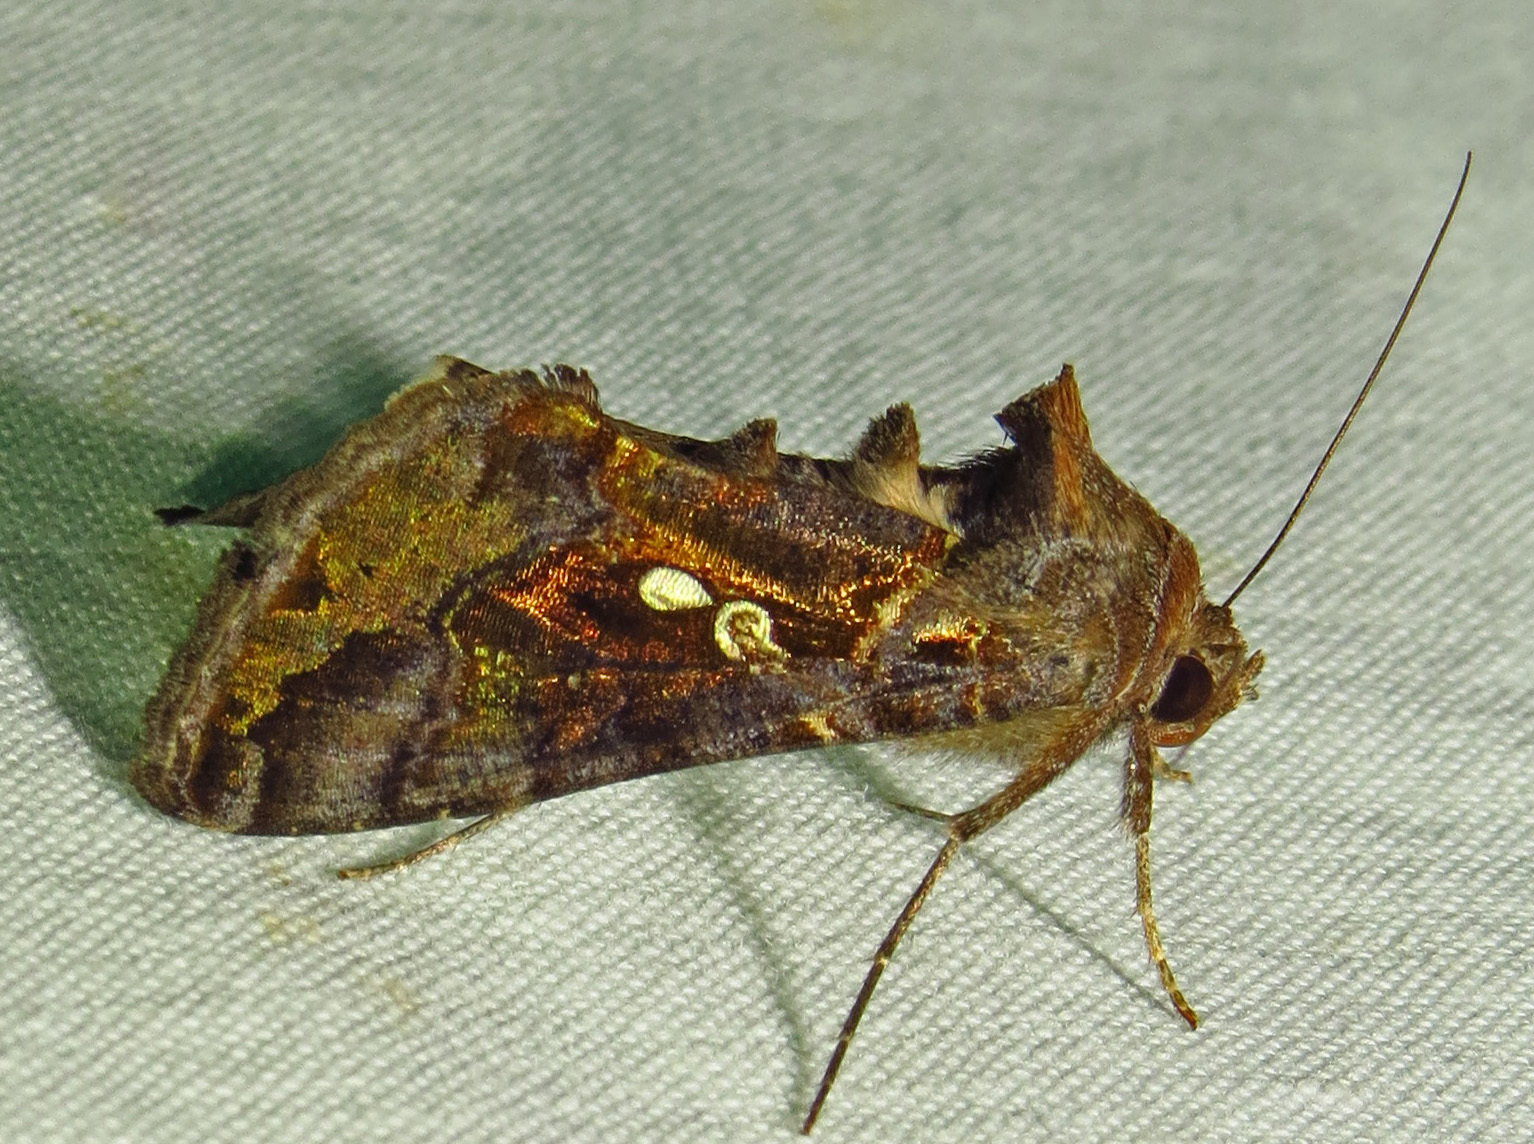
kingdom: Animalia
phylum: Arthropoda
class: Insecta
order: Lepidoptera
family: Noctuidae
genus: Chrysodeixis
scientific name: Chrysodeixis includens
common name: Cutworm moth
